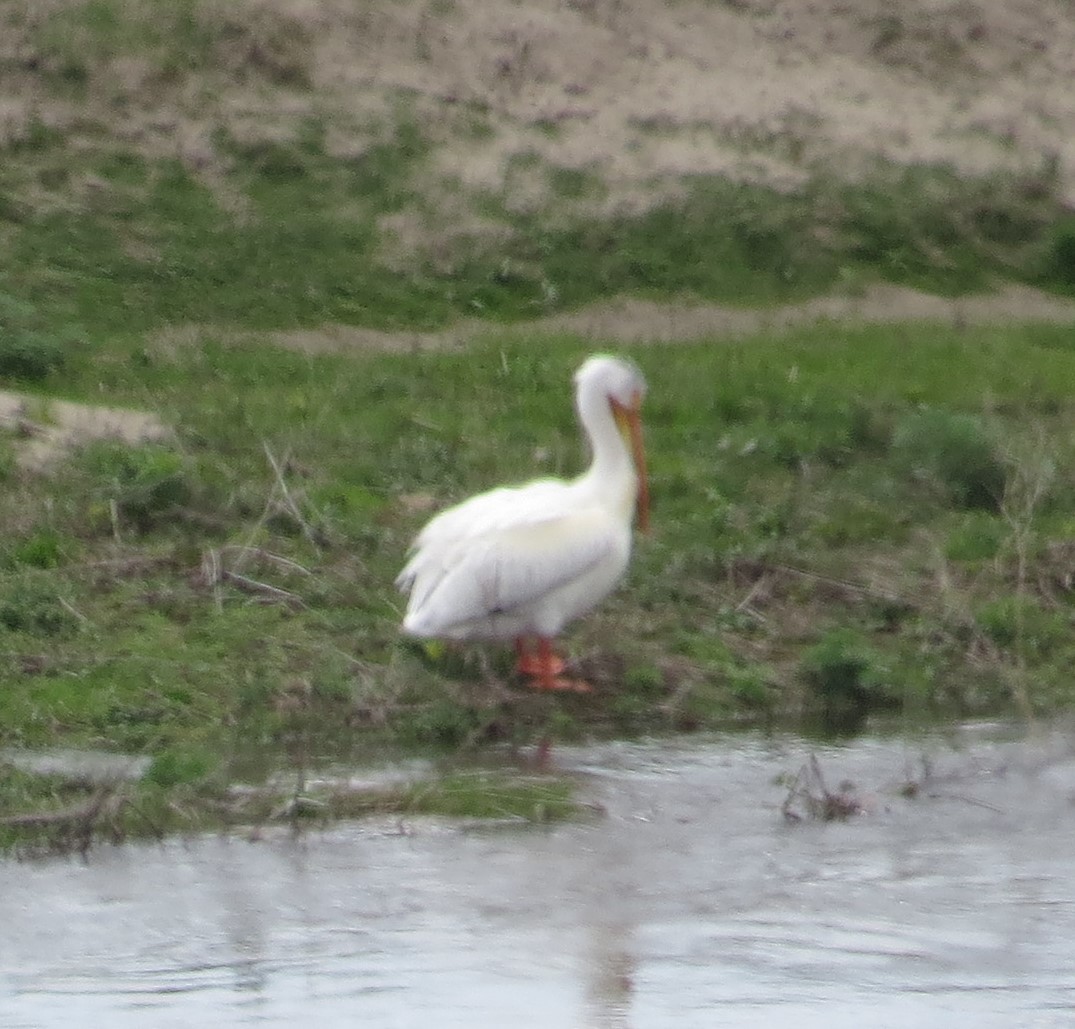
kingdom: Animalia
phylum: Chordata
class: Aves
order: Pelecaniformes
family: Pelecanidae
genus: Pelecanus
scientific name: Pelecanus erythrorhynchos
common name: American white pelican
